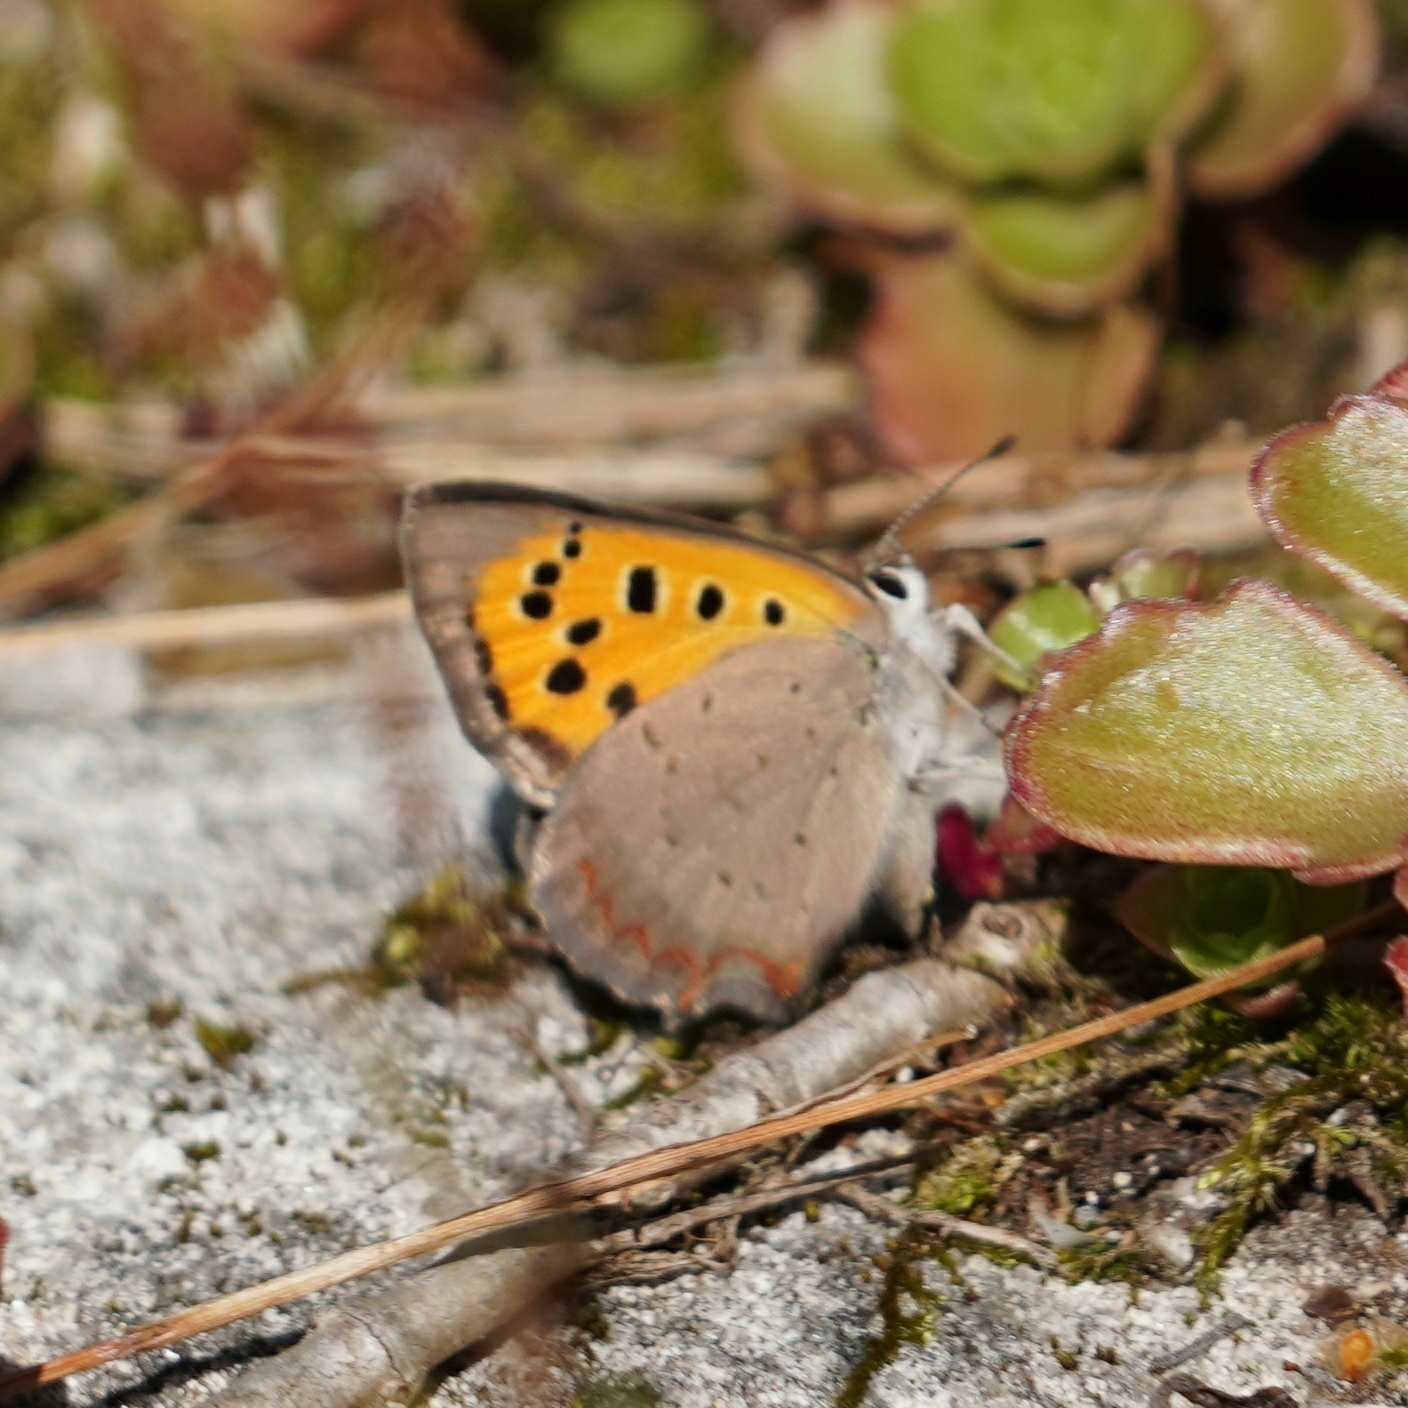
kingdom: Animalia
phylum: Arthropoda
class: Insecta
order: Lepidoptera
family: Lycaenidae
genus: Lycaena
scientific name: Lycaena phlaeas
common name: Small copper
